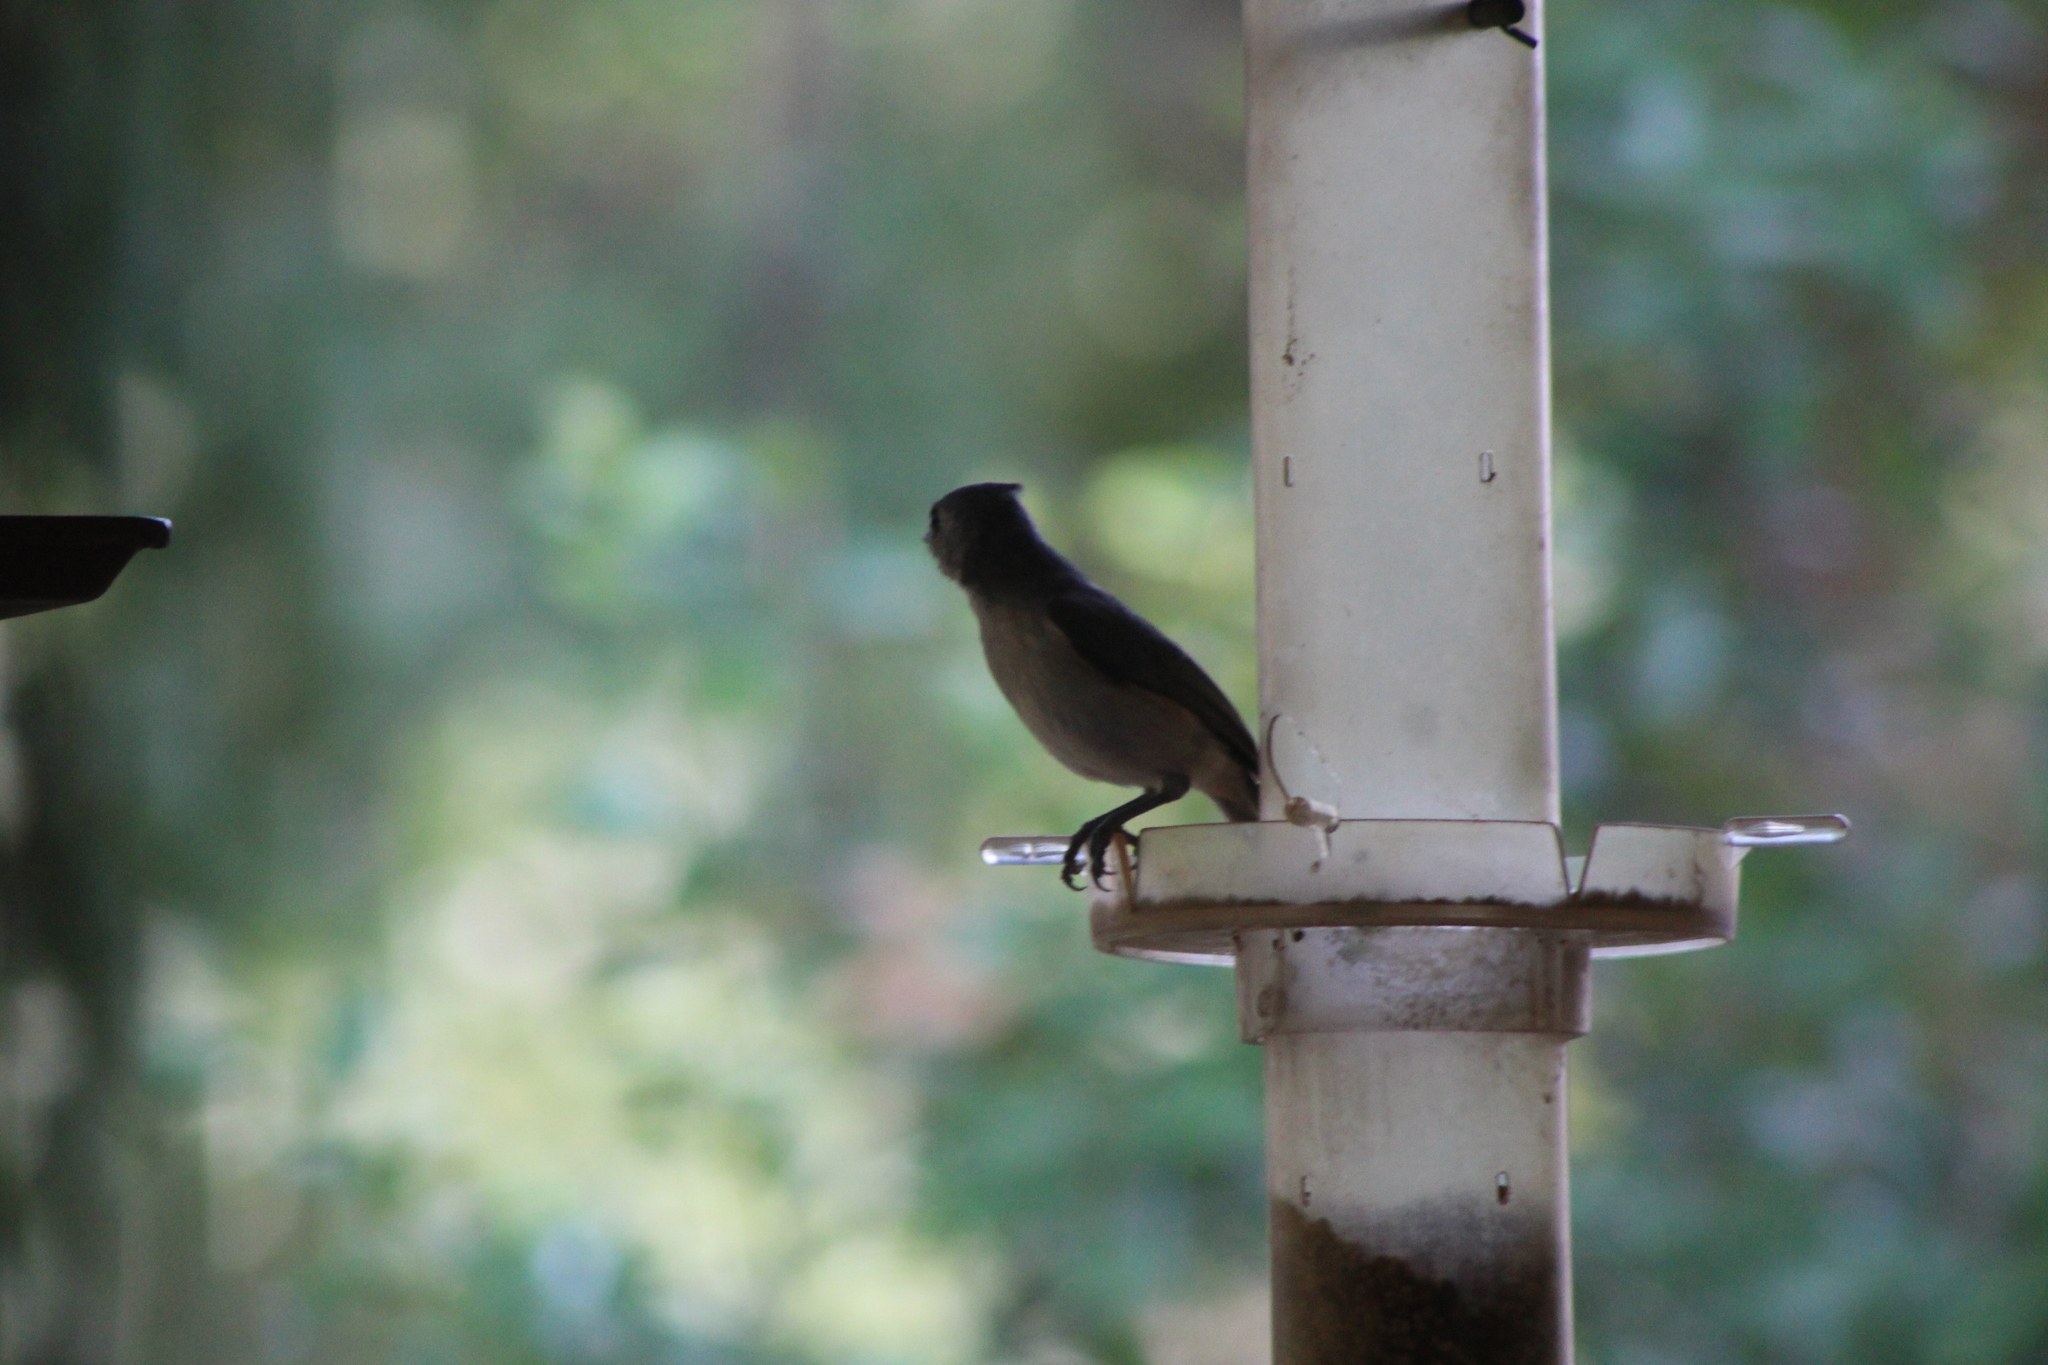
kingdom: Animalia
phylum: Chordata
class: Aves
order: Passeriformes
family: Paridae
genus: Baeolophus
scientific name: Baeolophus bicolor
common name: Tufted titmouse
